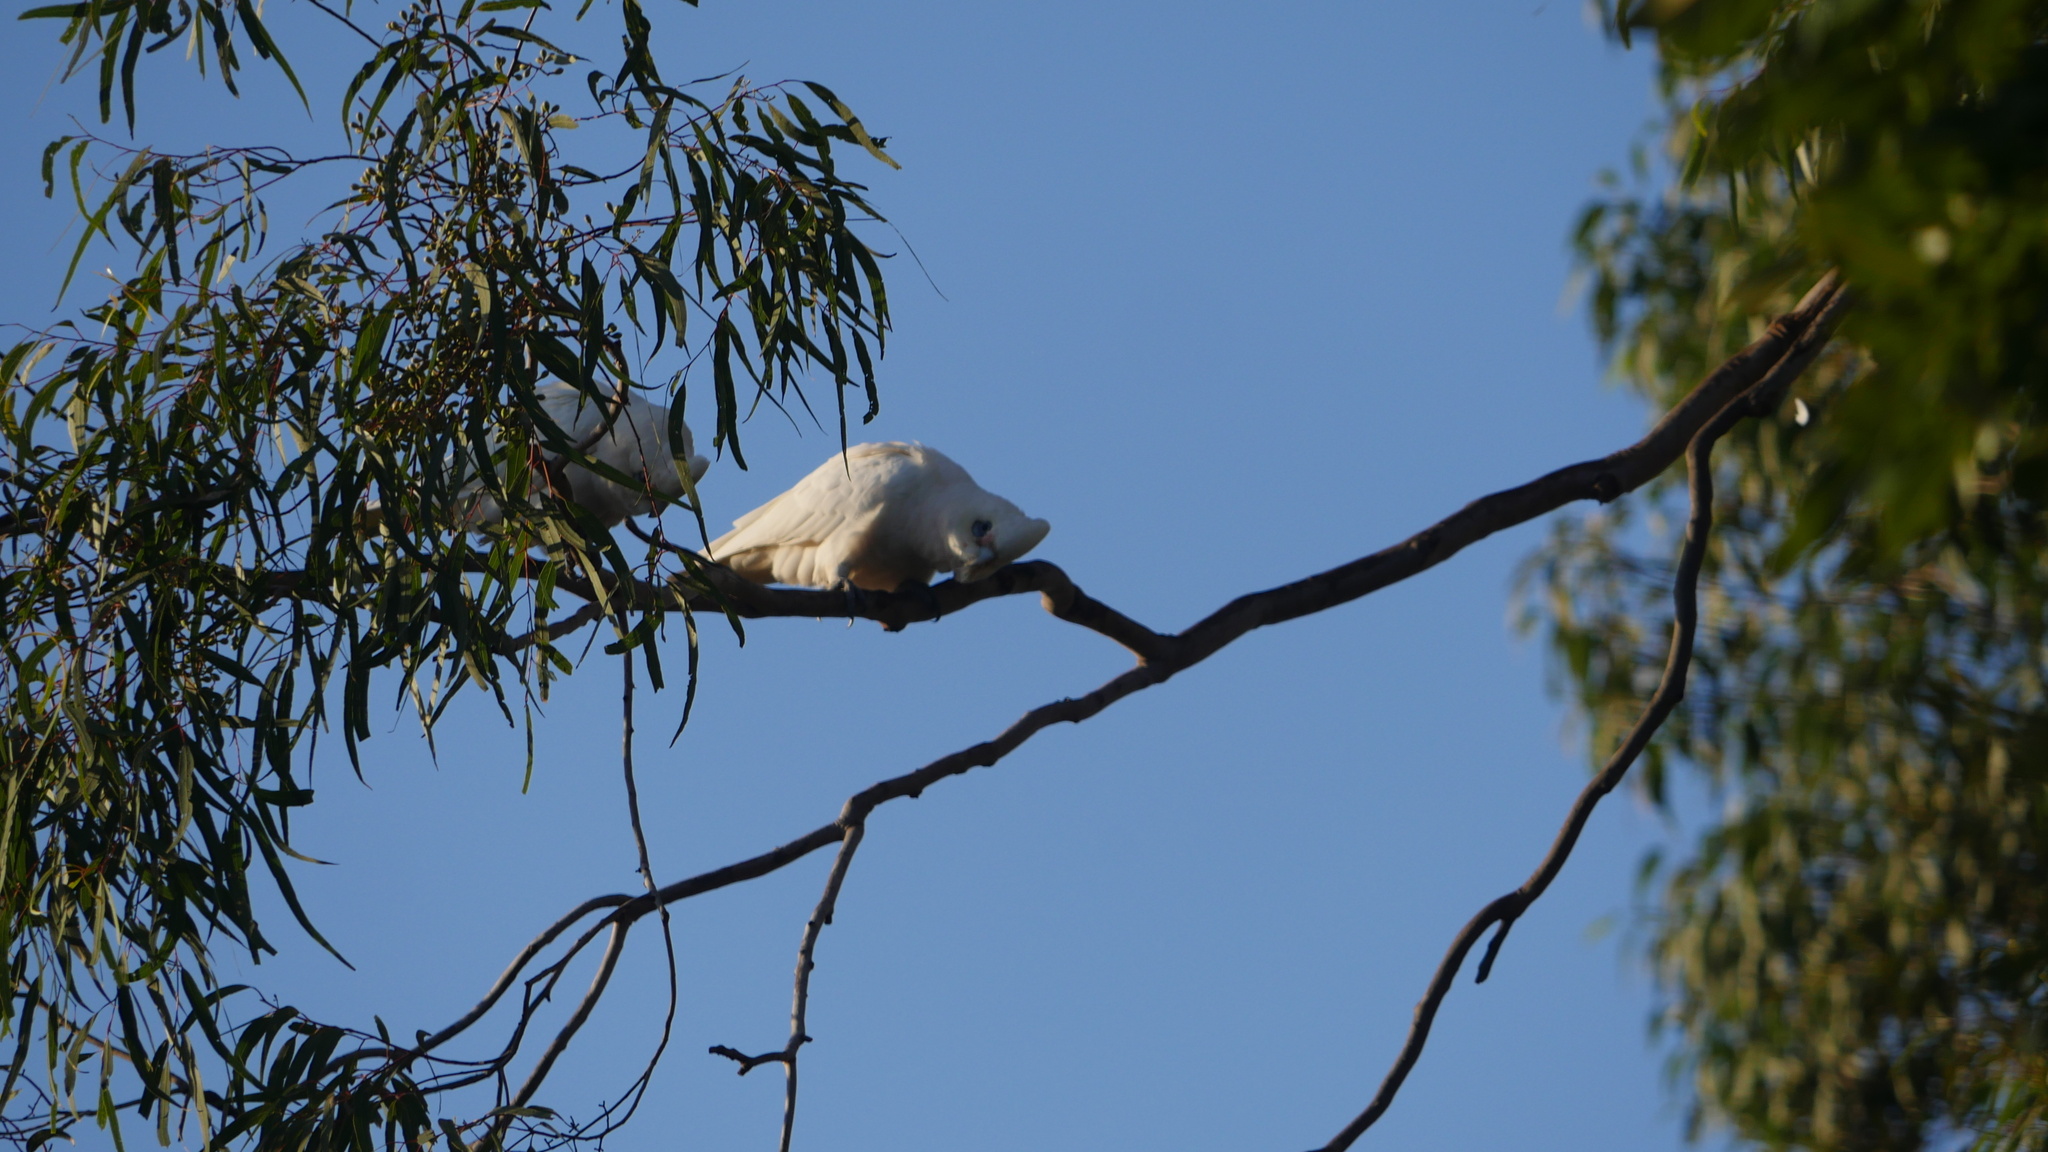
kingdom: Animalia
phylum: Chordata
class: Aves
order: Psittaciformes
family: Psittacidae
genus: Cacatua
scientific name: Cacatua sanguinea
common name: Little corella
